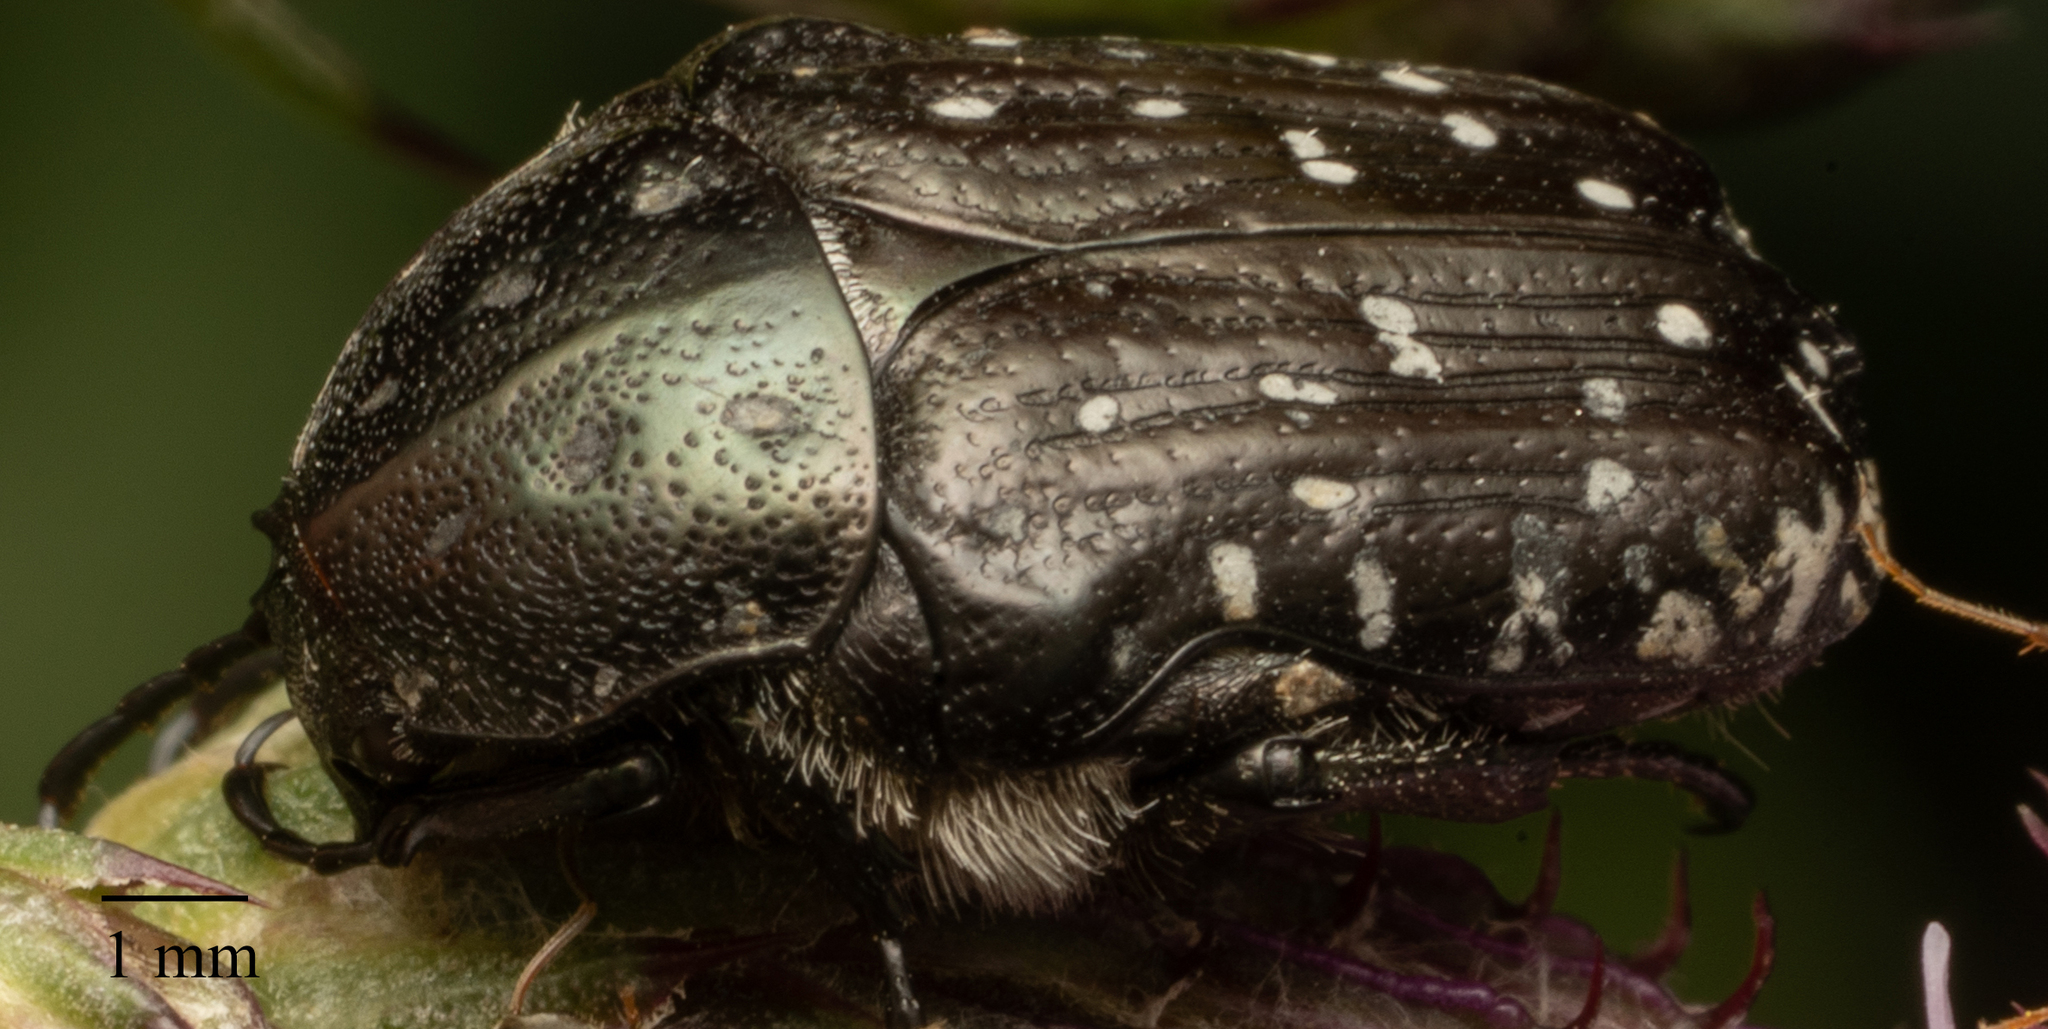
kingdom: Animalia
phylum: Arthropoda
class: Insecta
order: Coleoptera
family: Scarabaeidae
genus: Oxythyrea
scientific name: Oxythyrea funesta
